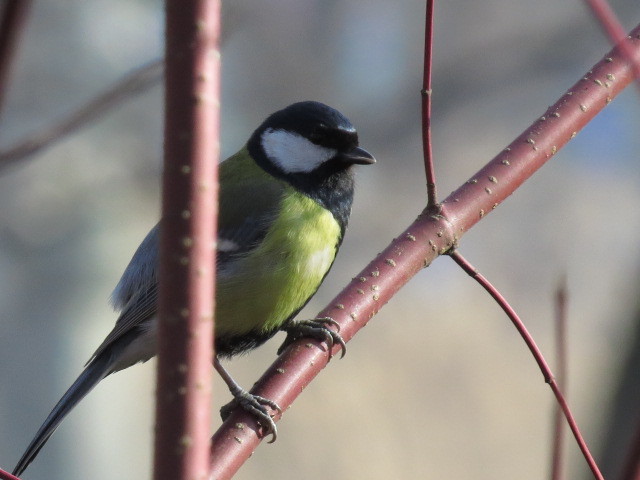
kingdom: Animalia
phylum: Chordata
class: Aves
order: Passeriformes
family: Paridae
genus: Parus
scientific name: Parus major
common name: Great tit
